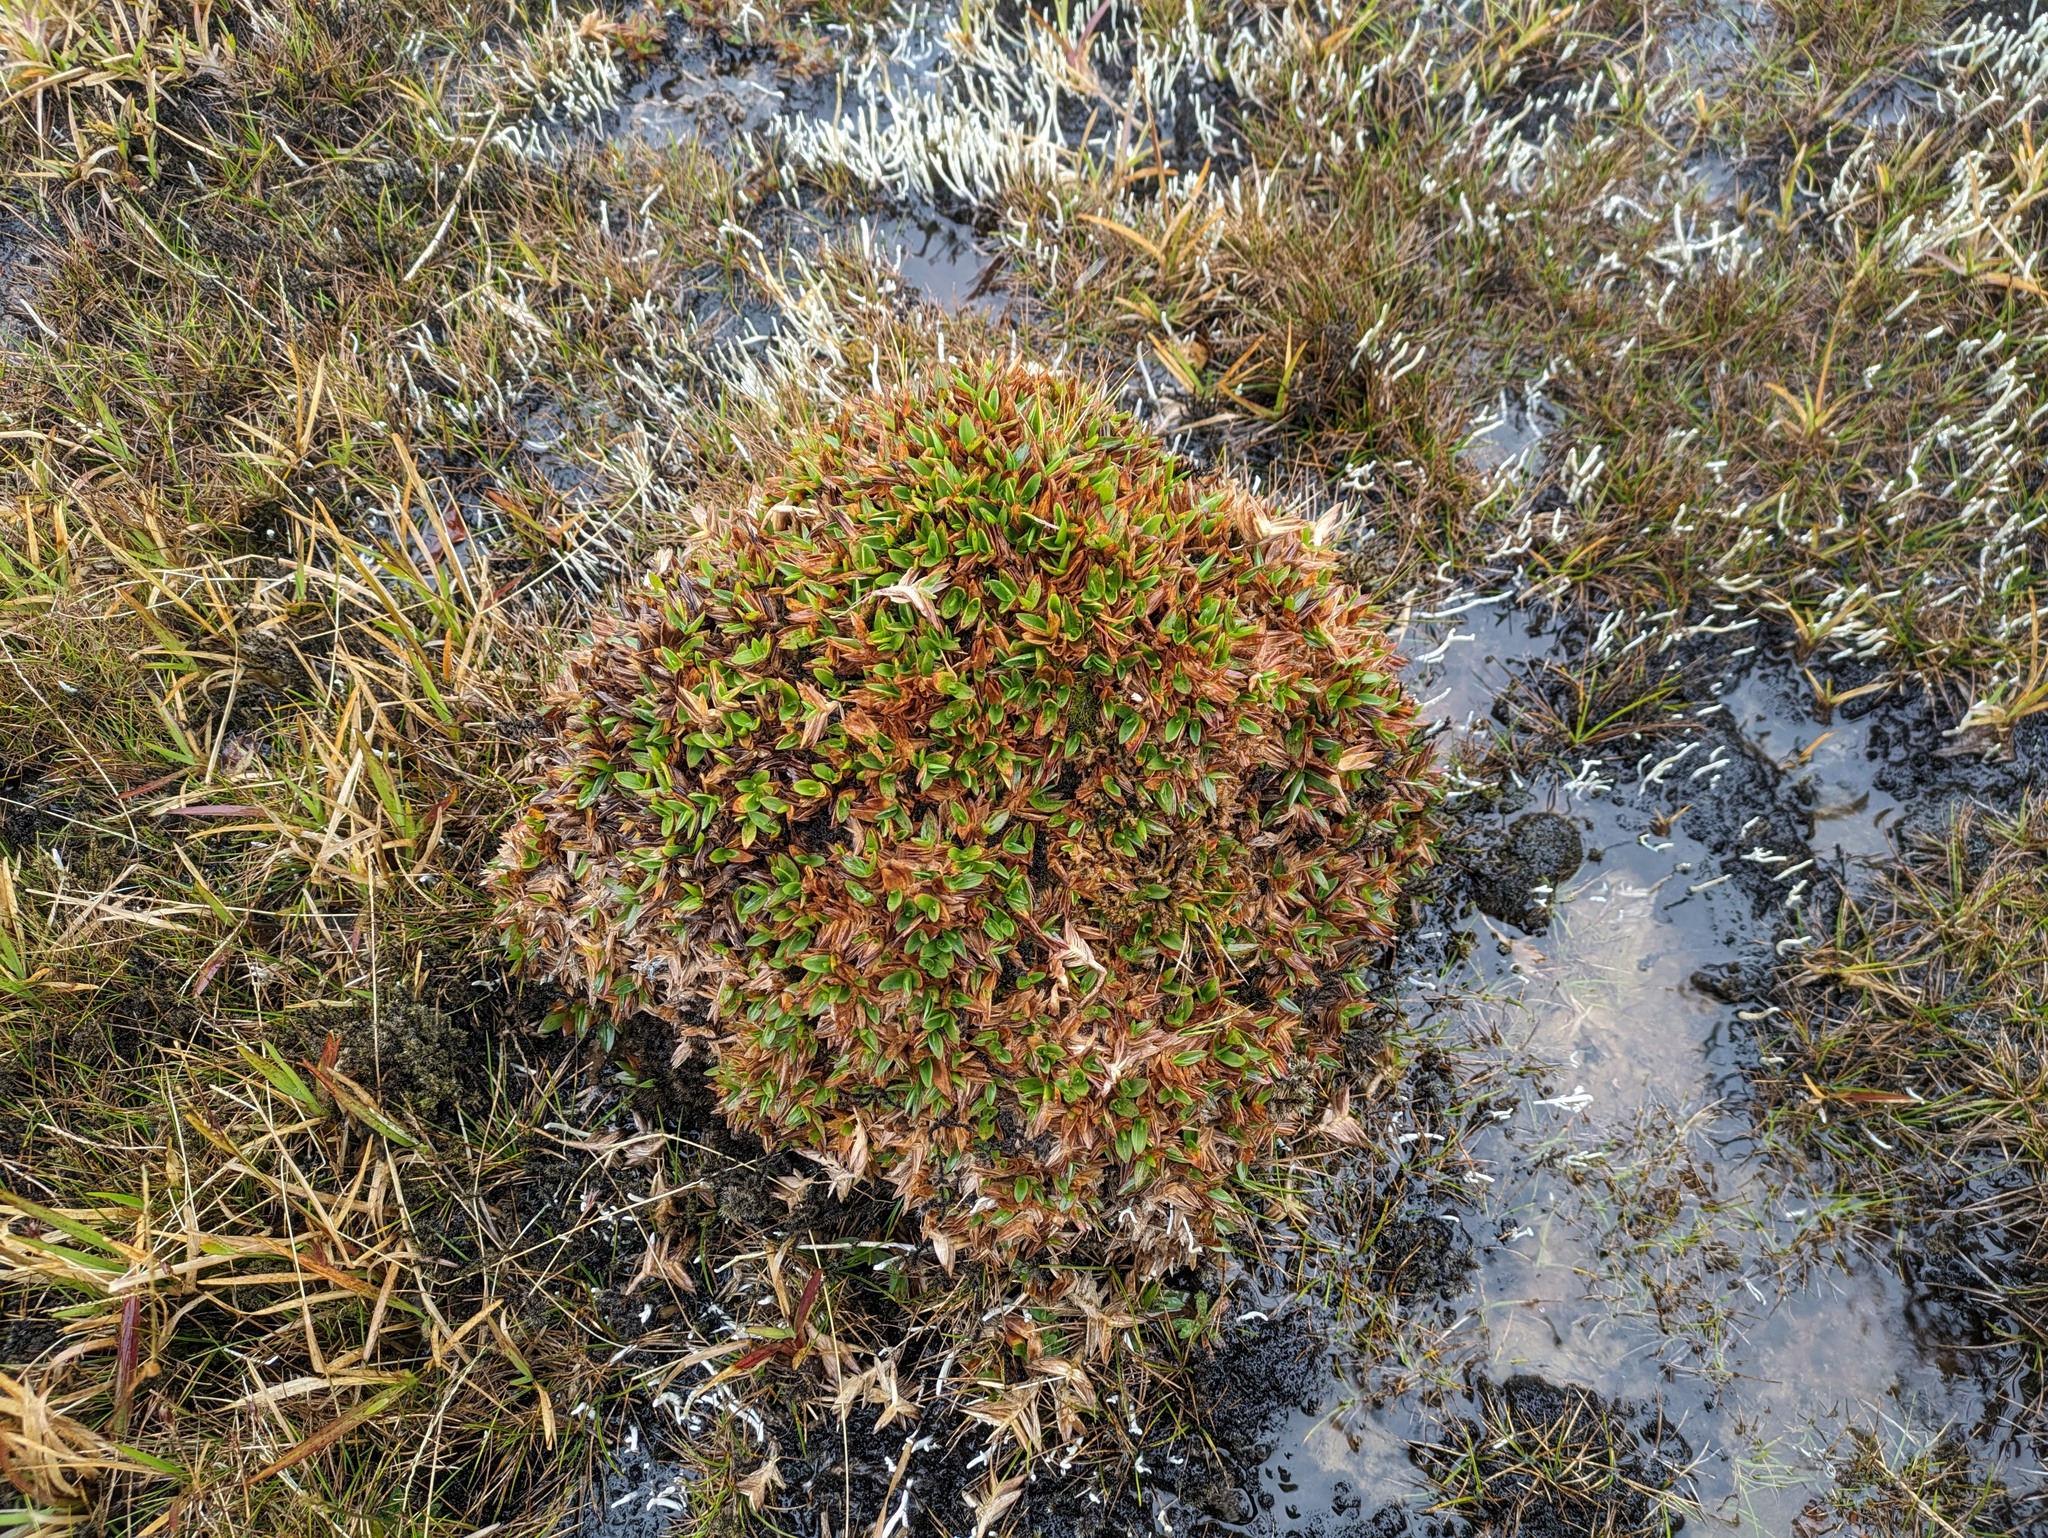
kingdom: Plantae
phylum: Tracheophyta
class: Liliopsida
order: Poales
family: Poaceae
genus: Dichanthelium
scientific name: Dichanthelium cynodon
